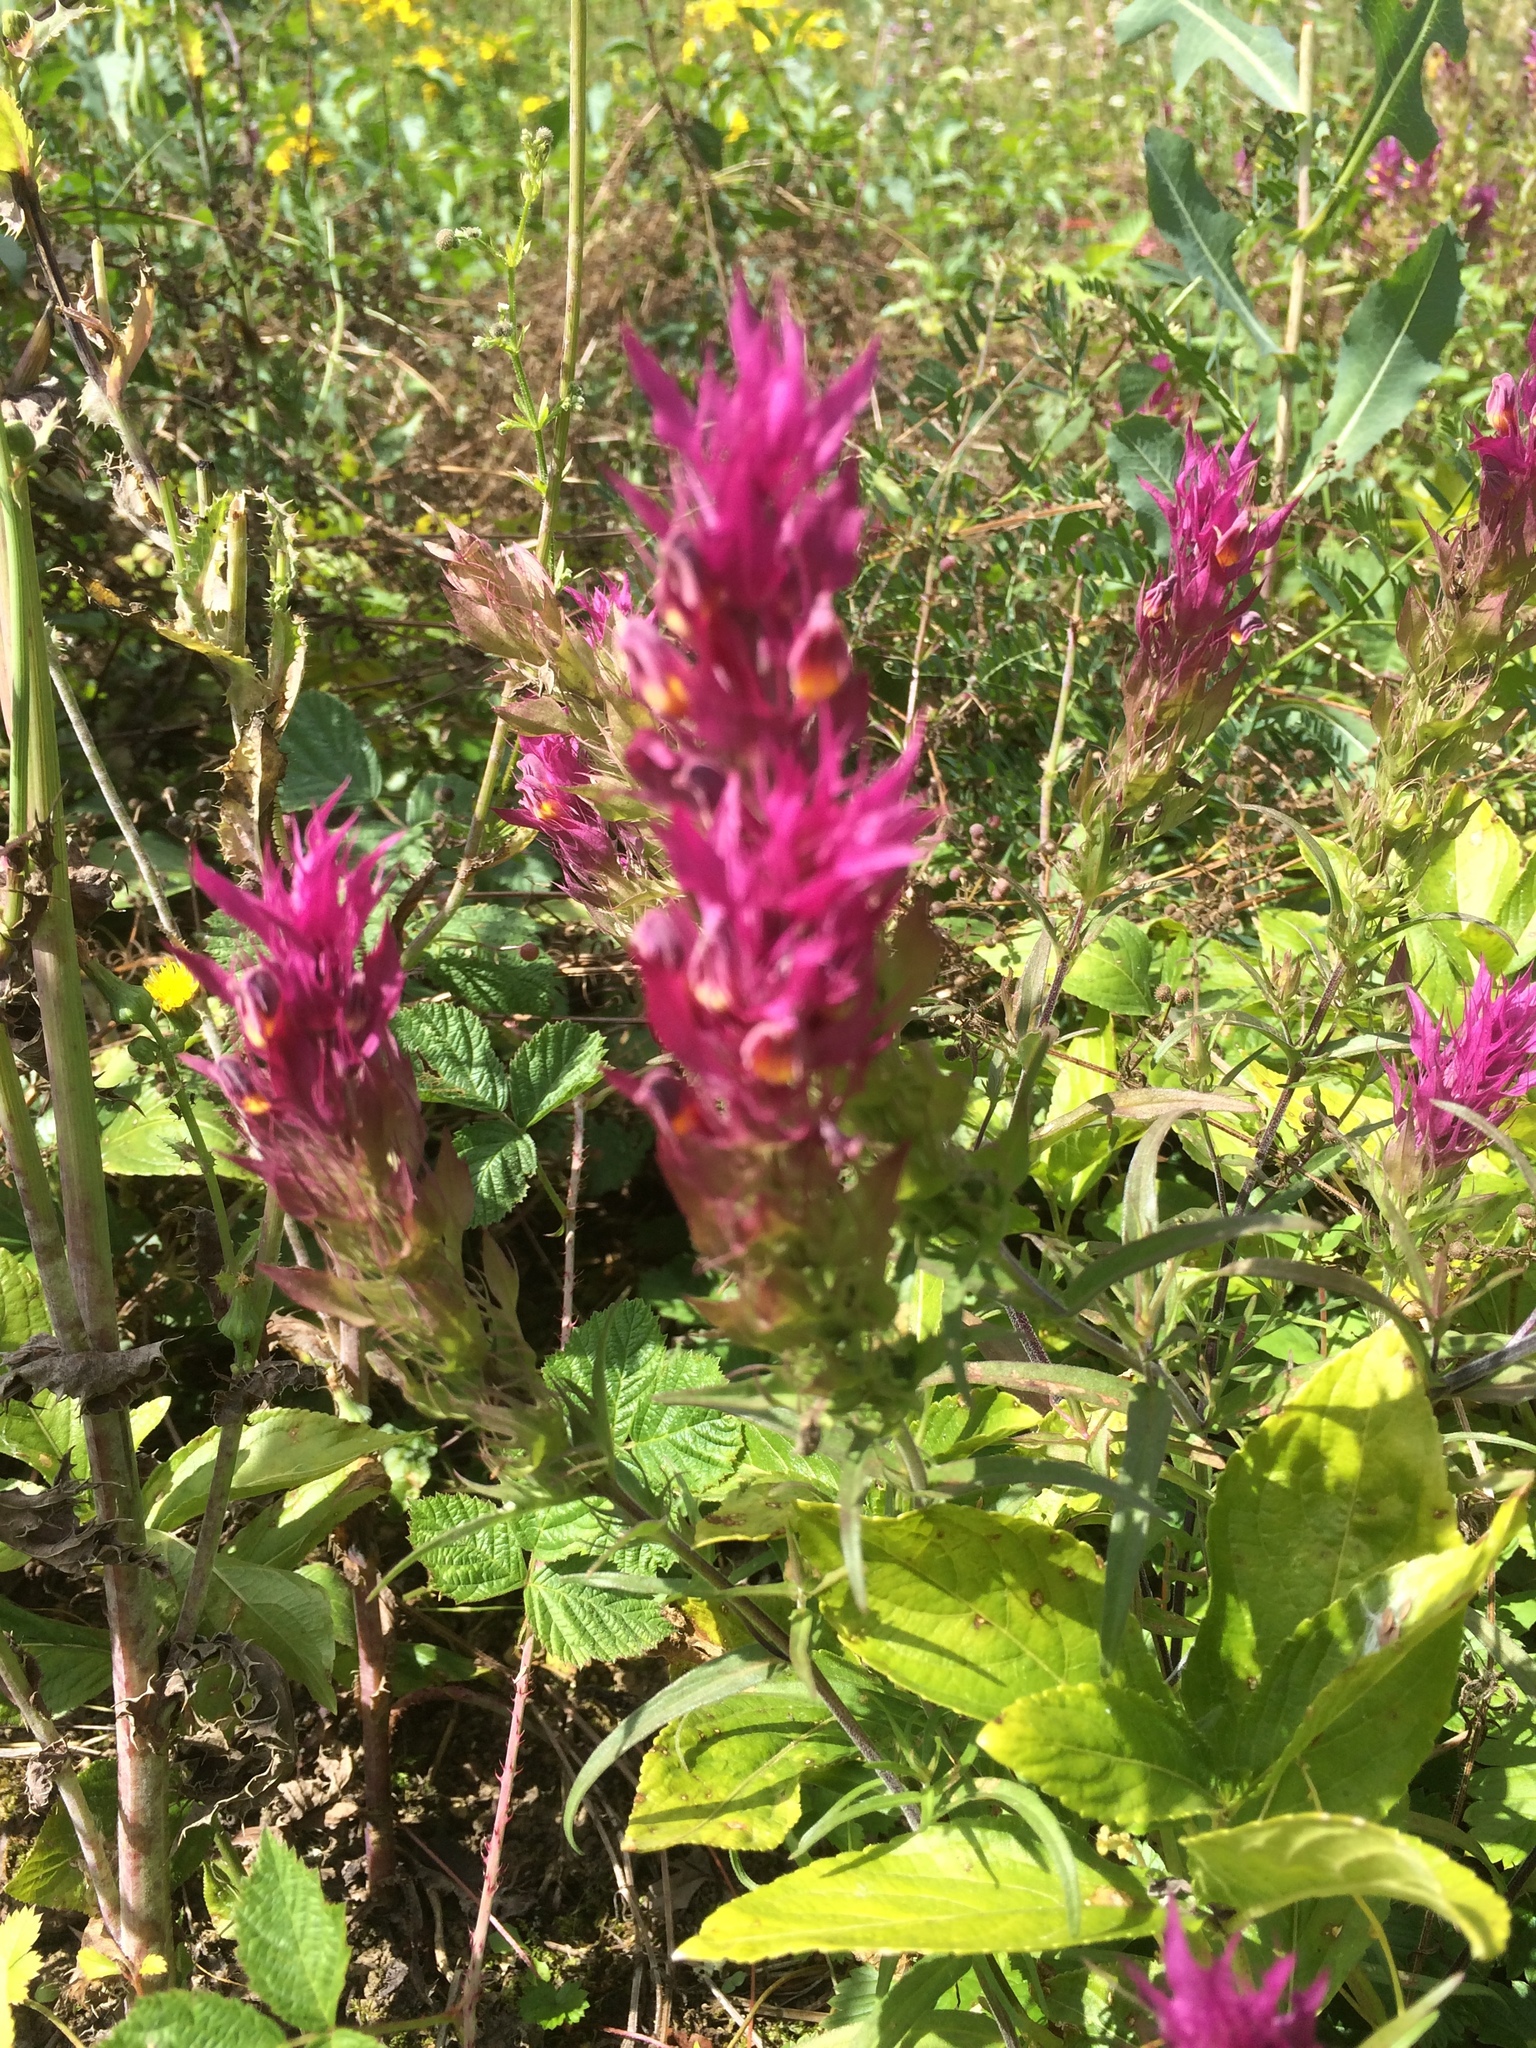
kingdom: Plantae
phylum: Tracheophyta
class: Magnoliopsida
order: Lamiales
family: Orobanchaceae
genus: Melampyrum
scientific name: Melampyrum arvense
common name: Field cow-wheat
